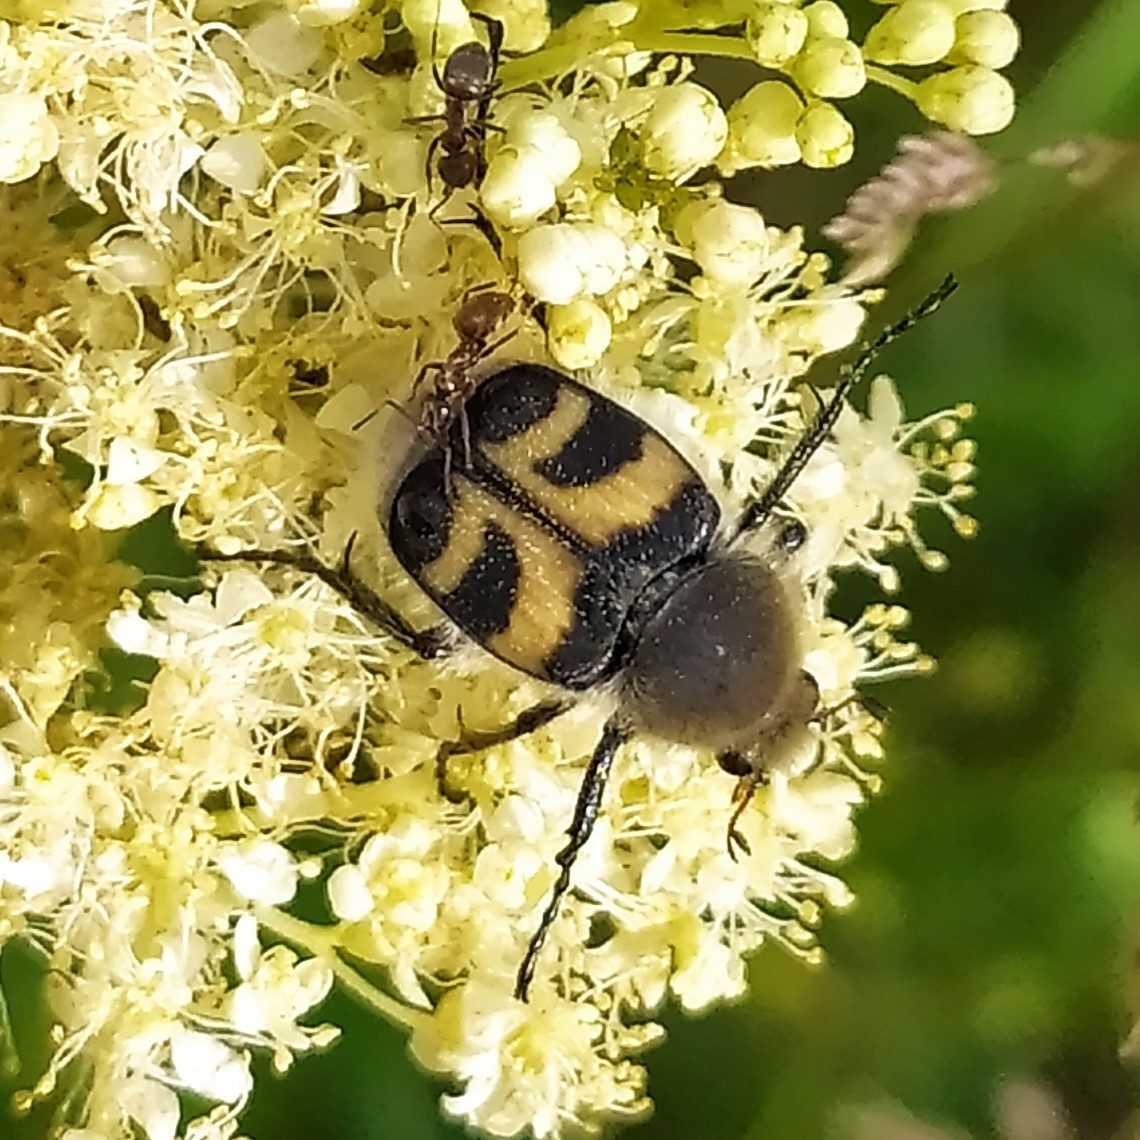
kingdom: Animalia
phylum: Arthropoda
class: Insecta
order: Coleoptera
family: Scarabaeidae
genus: Trichius
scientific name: Trichius fasciatus
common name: Bee beetle
